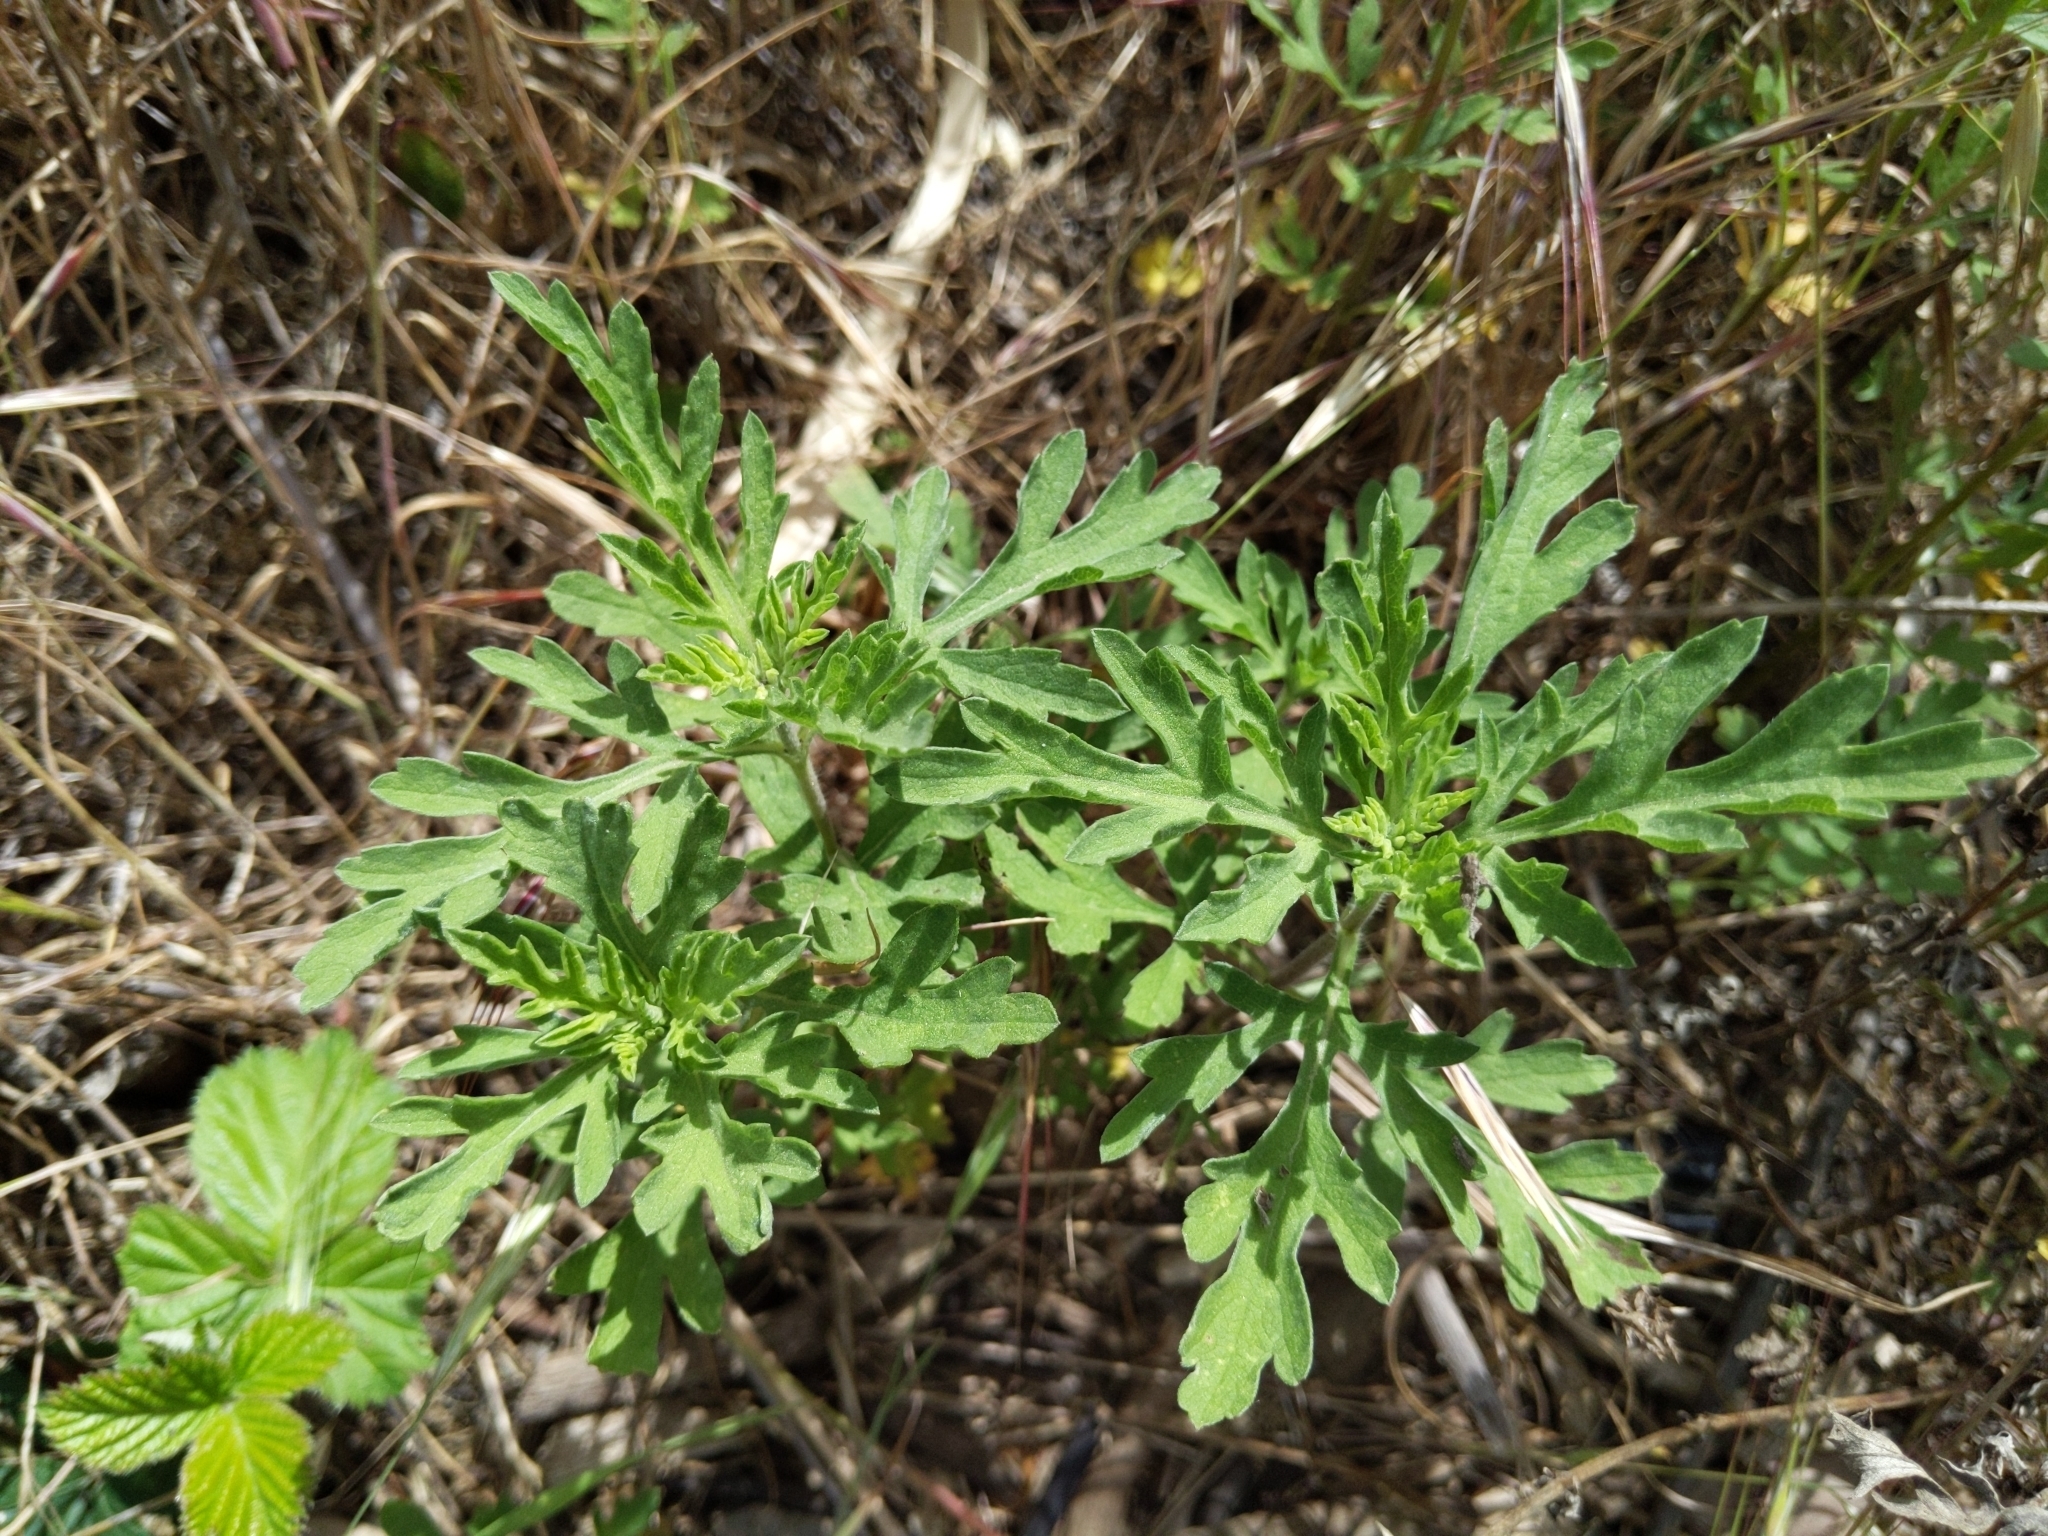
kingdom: Plantae
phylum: Tracheophyta
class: Magnoliopsida
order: Asterales
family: Asteraceae
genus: Ambrosia
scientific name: Ambrosia psilostachya
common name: Perennial ragweed
